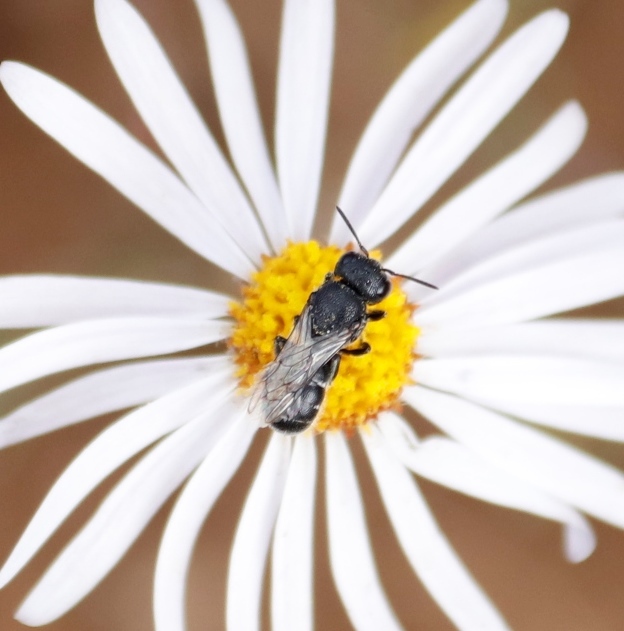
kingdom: Plantae
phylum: Tracheophyta
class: Magnoliopsida
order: Asterales
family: Asteraceae
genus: Felicia
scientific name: Felicia muricata
